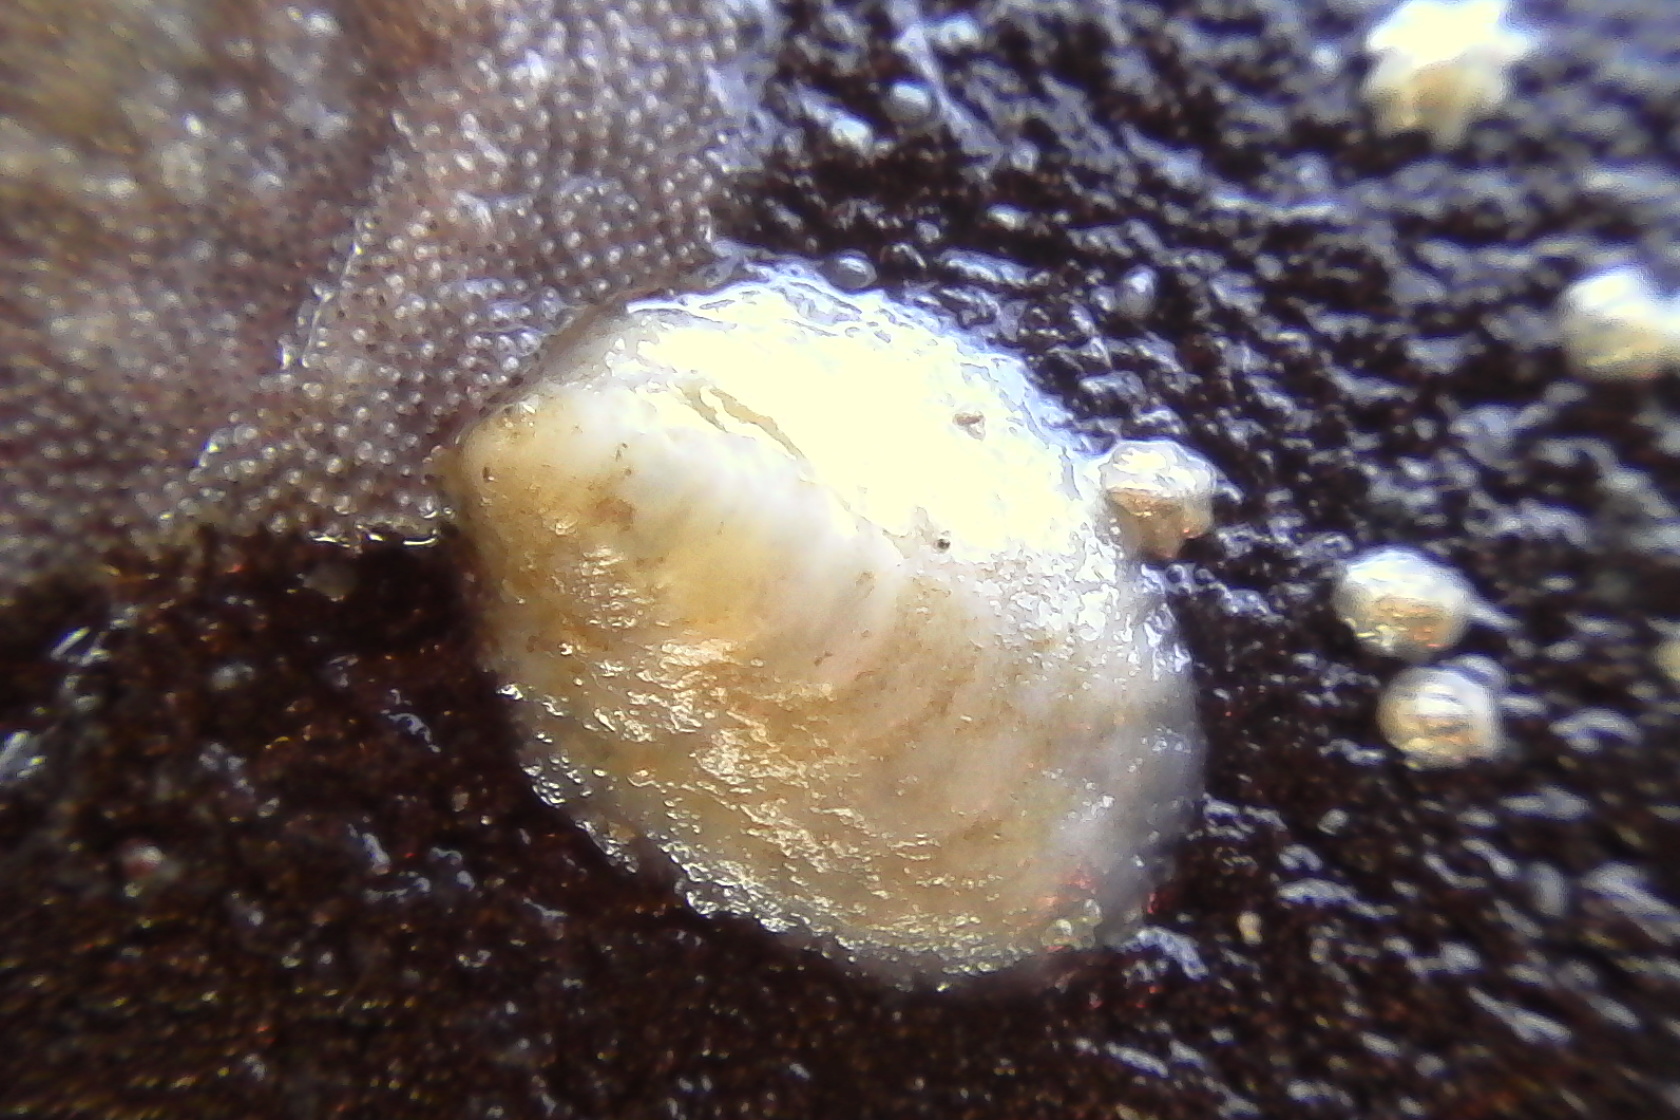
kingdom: Animalia
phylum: Mollusca
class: Gastropoda
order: Littorinimorpha
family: Calyptraeidae
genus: Maoricrypta
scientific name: Maoricrypta monoxyla
